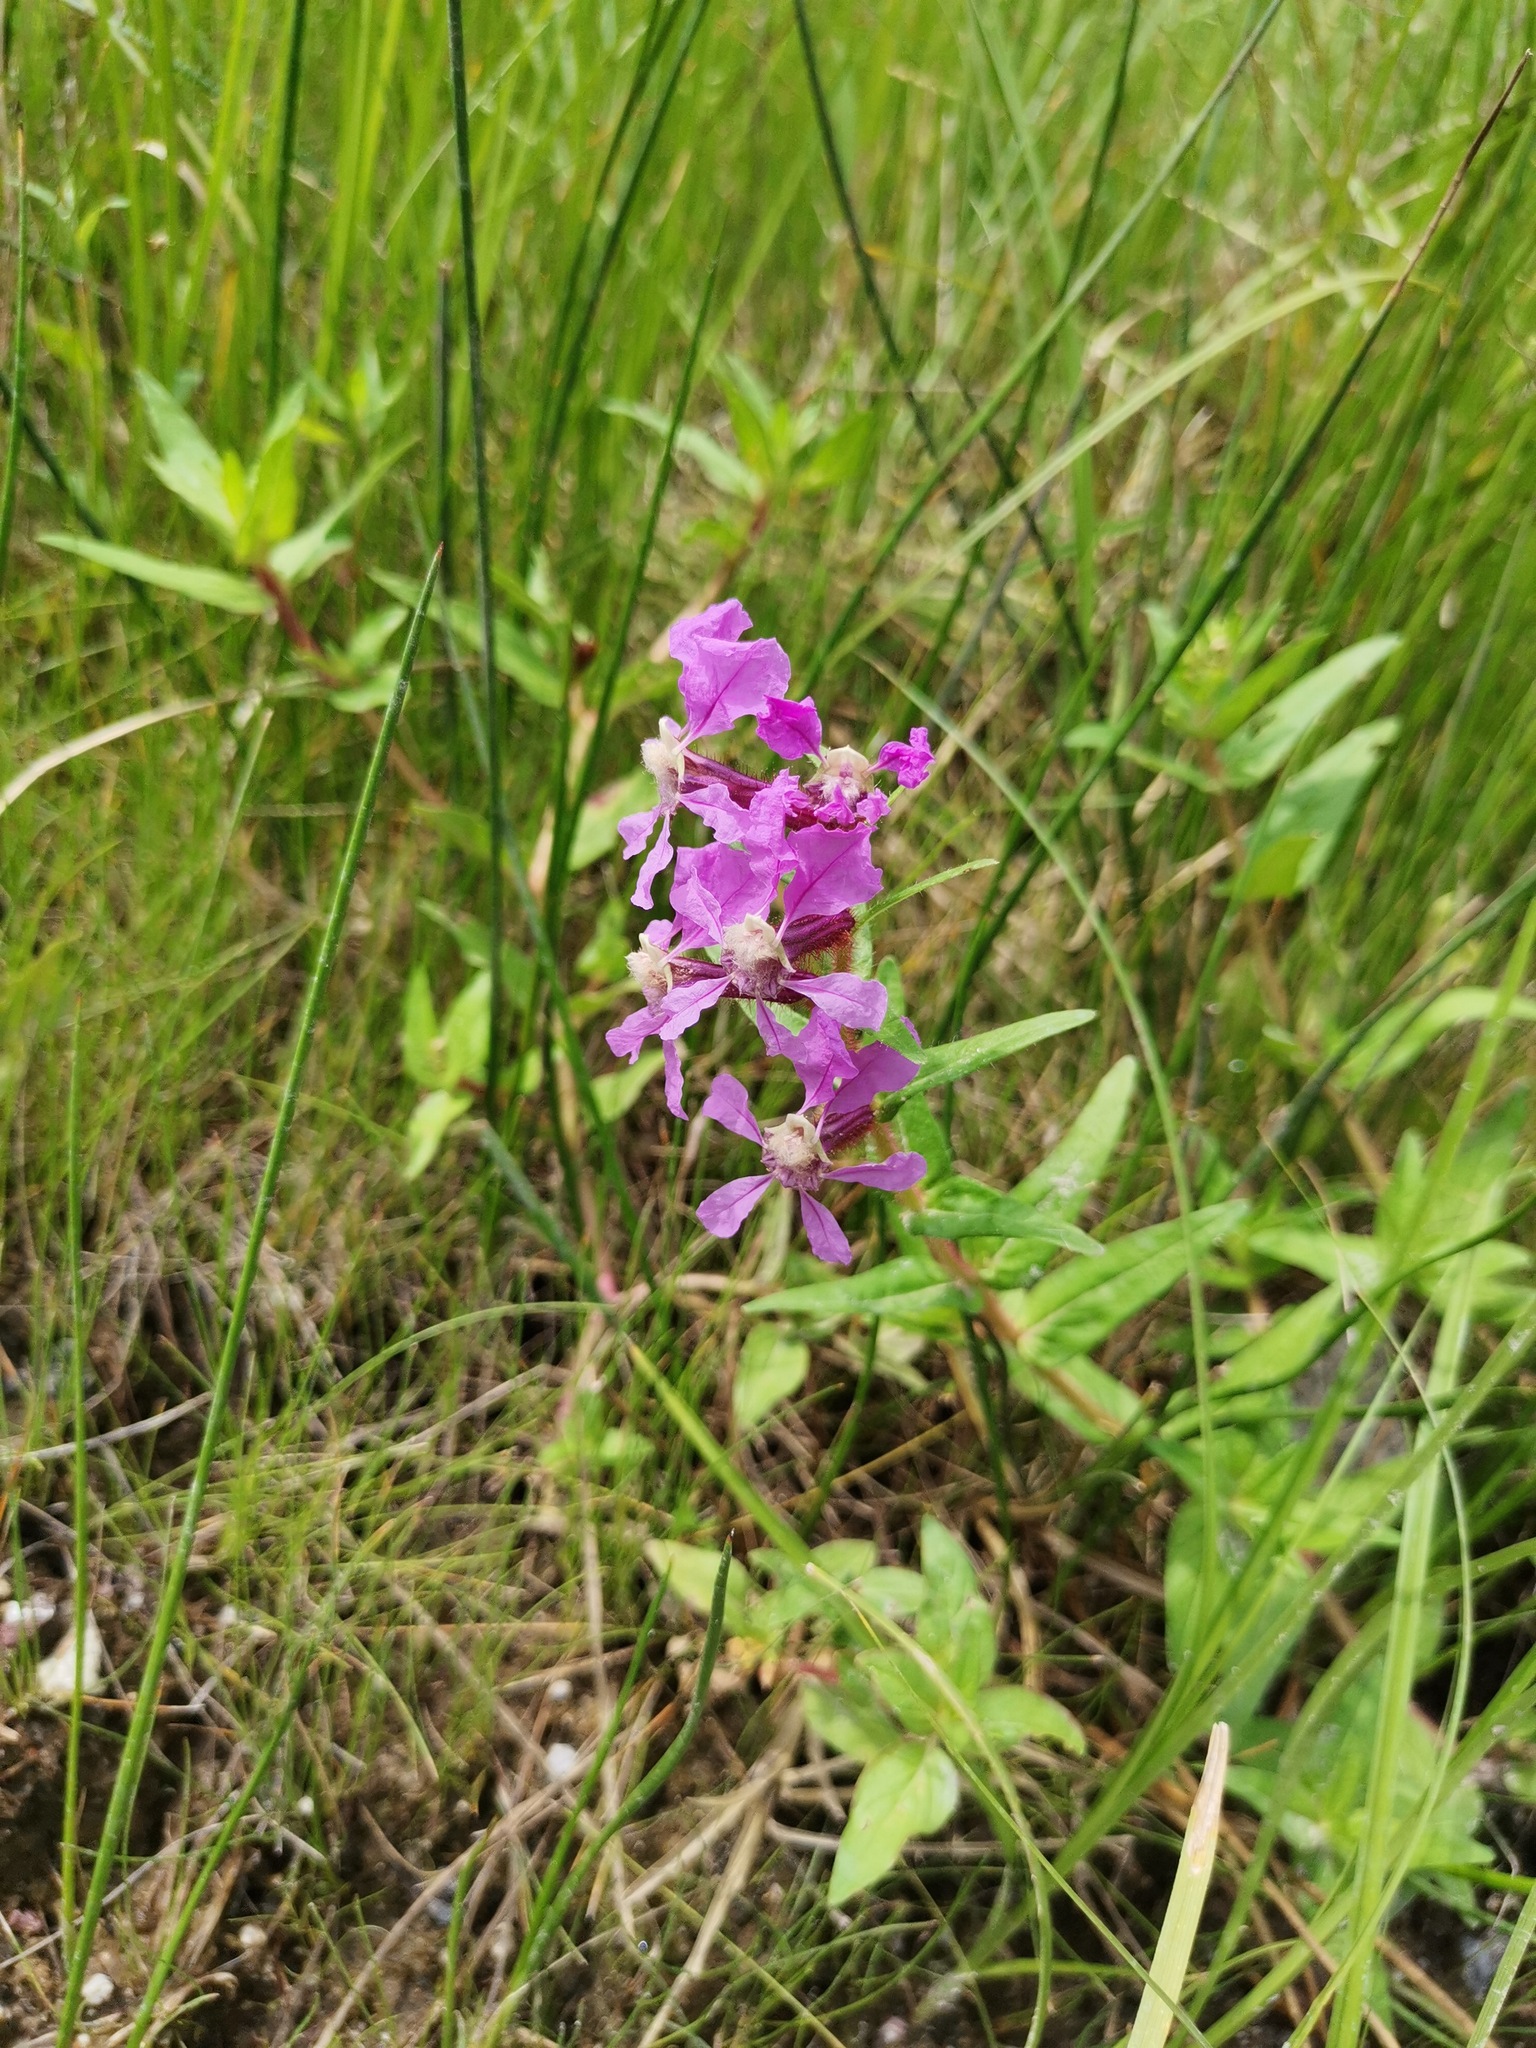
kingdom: Plantae
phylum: Tracheophyta
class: Magnoliopsida
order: Myrtales
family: Lythraceae
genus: Cuphea
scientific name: Cuphea procumbens
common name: Creeping waxweed
